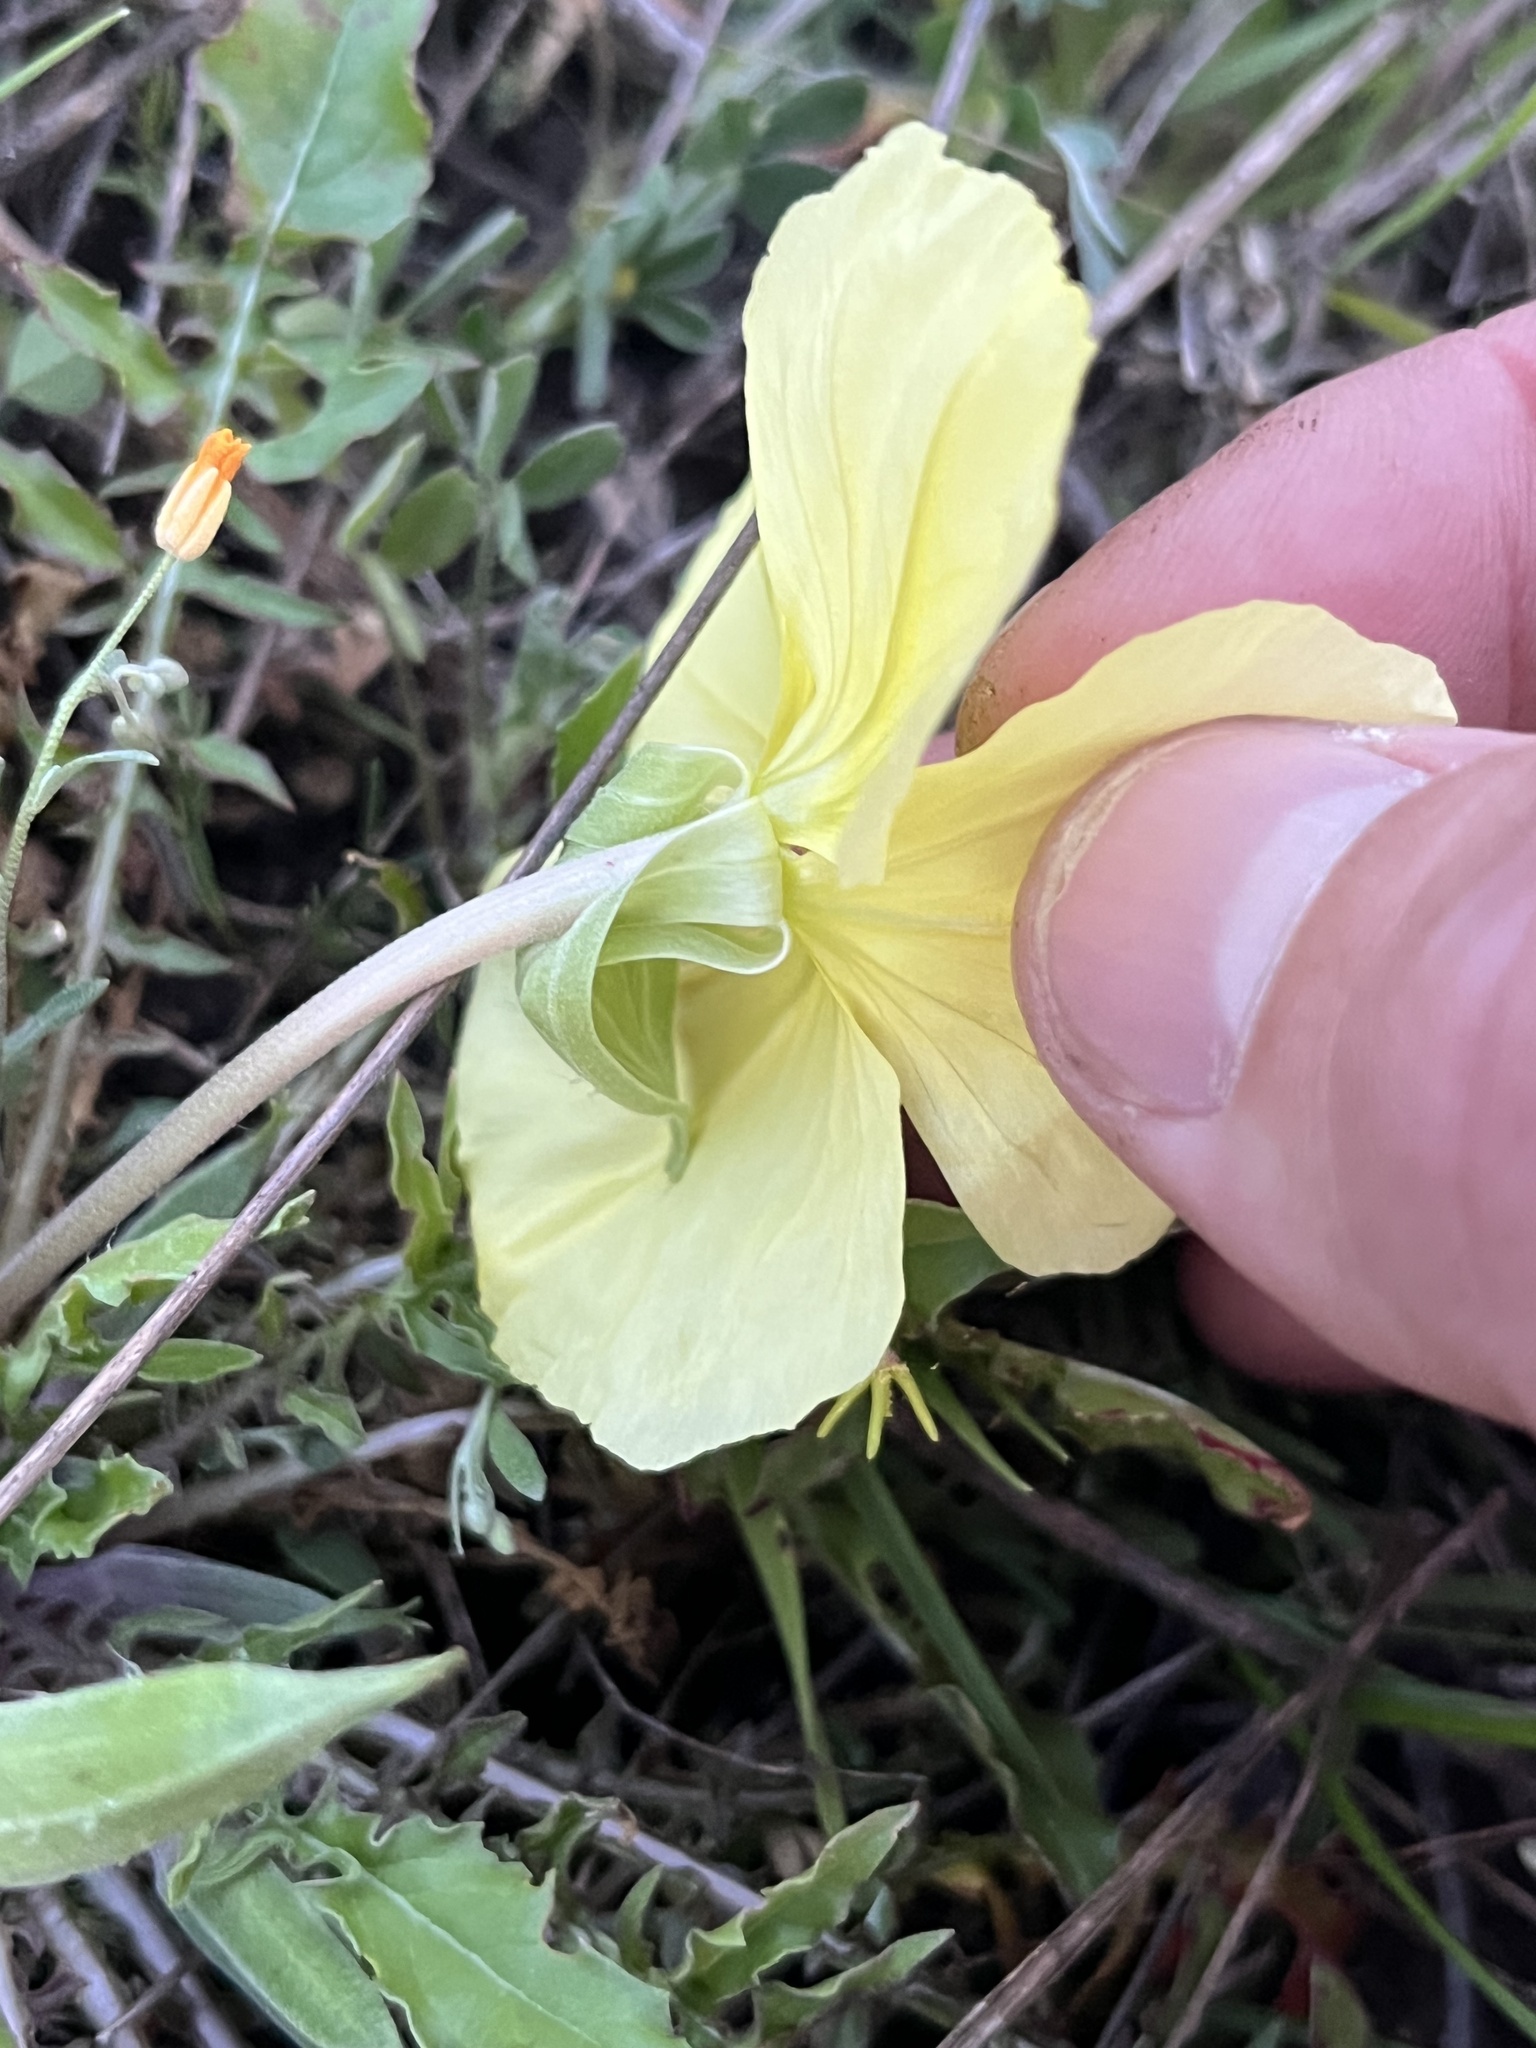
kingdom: Plantae
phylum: Tracheophyta
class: Magnoliopsida
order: Myrtales
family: Onagraceae
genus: Oenothera
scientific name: Oenothera triloba
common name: Sessile evening-primrose
